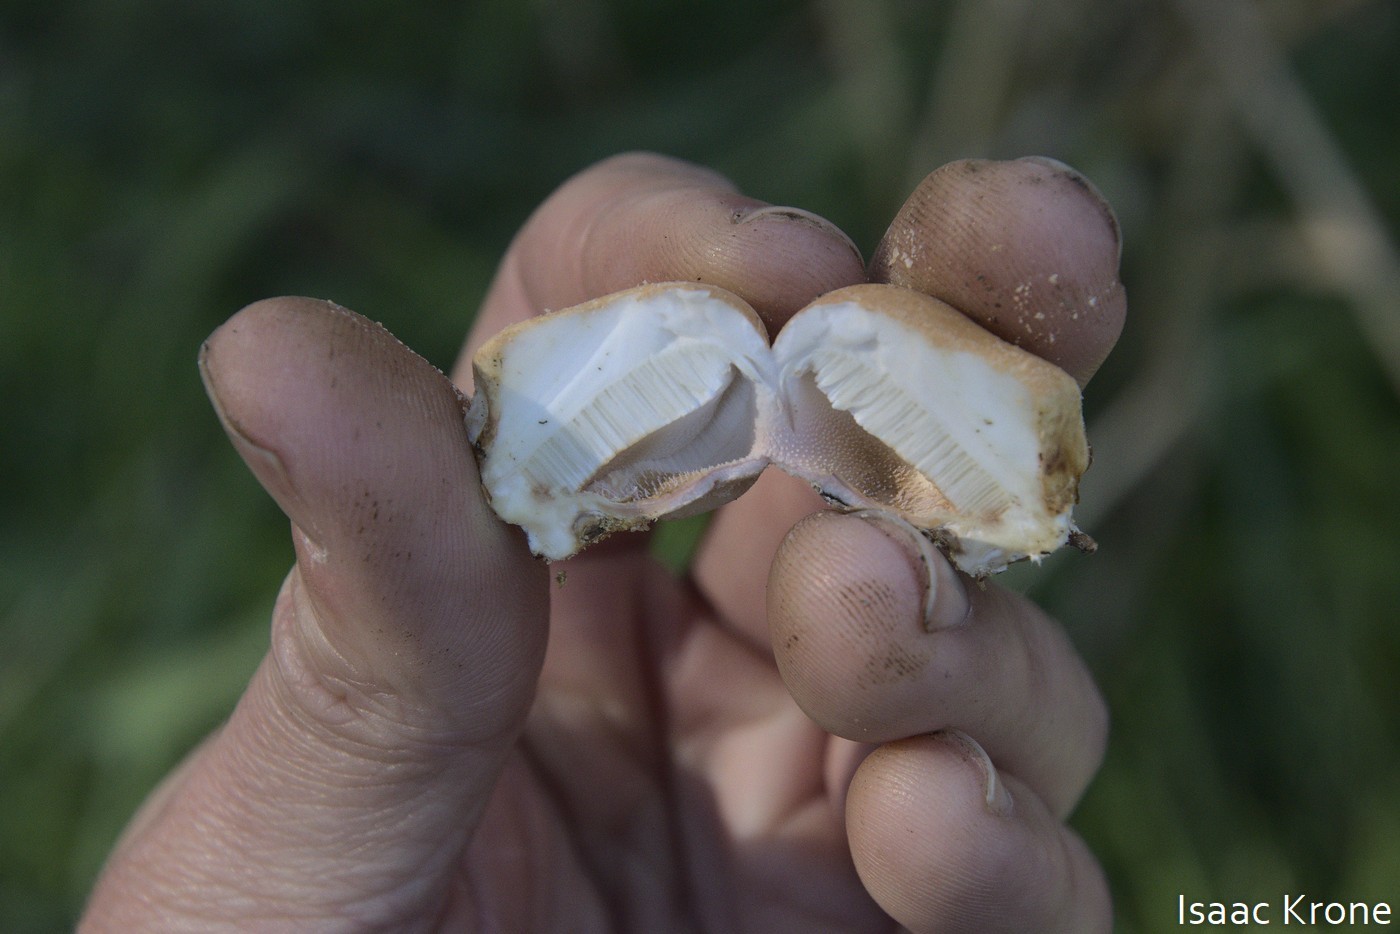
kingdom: Fungi
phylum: Basidiomycota
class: Agaricomycetes
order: Polyporales
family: Polyporaceae
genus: Cryptoporus
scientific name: Cryptoporus volvatus
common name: Veiled polypore
